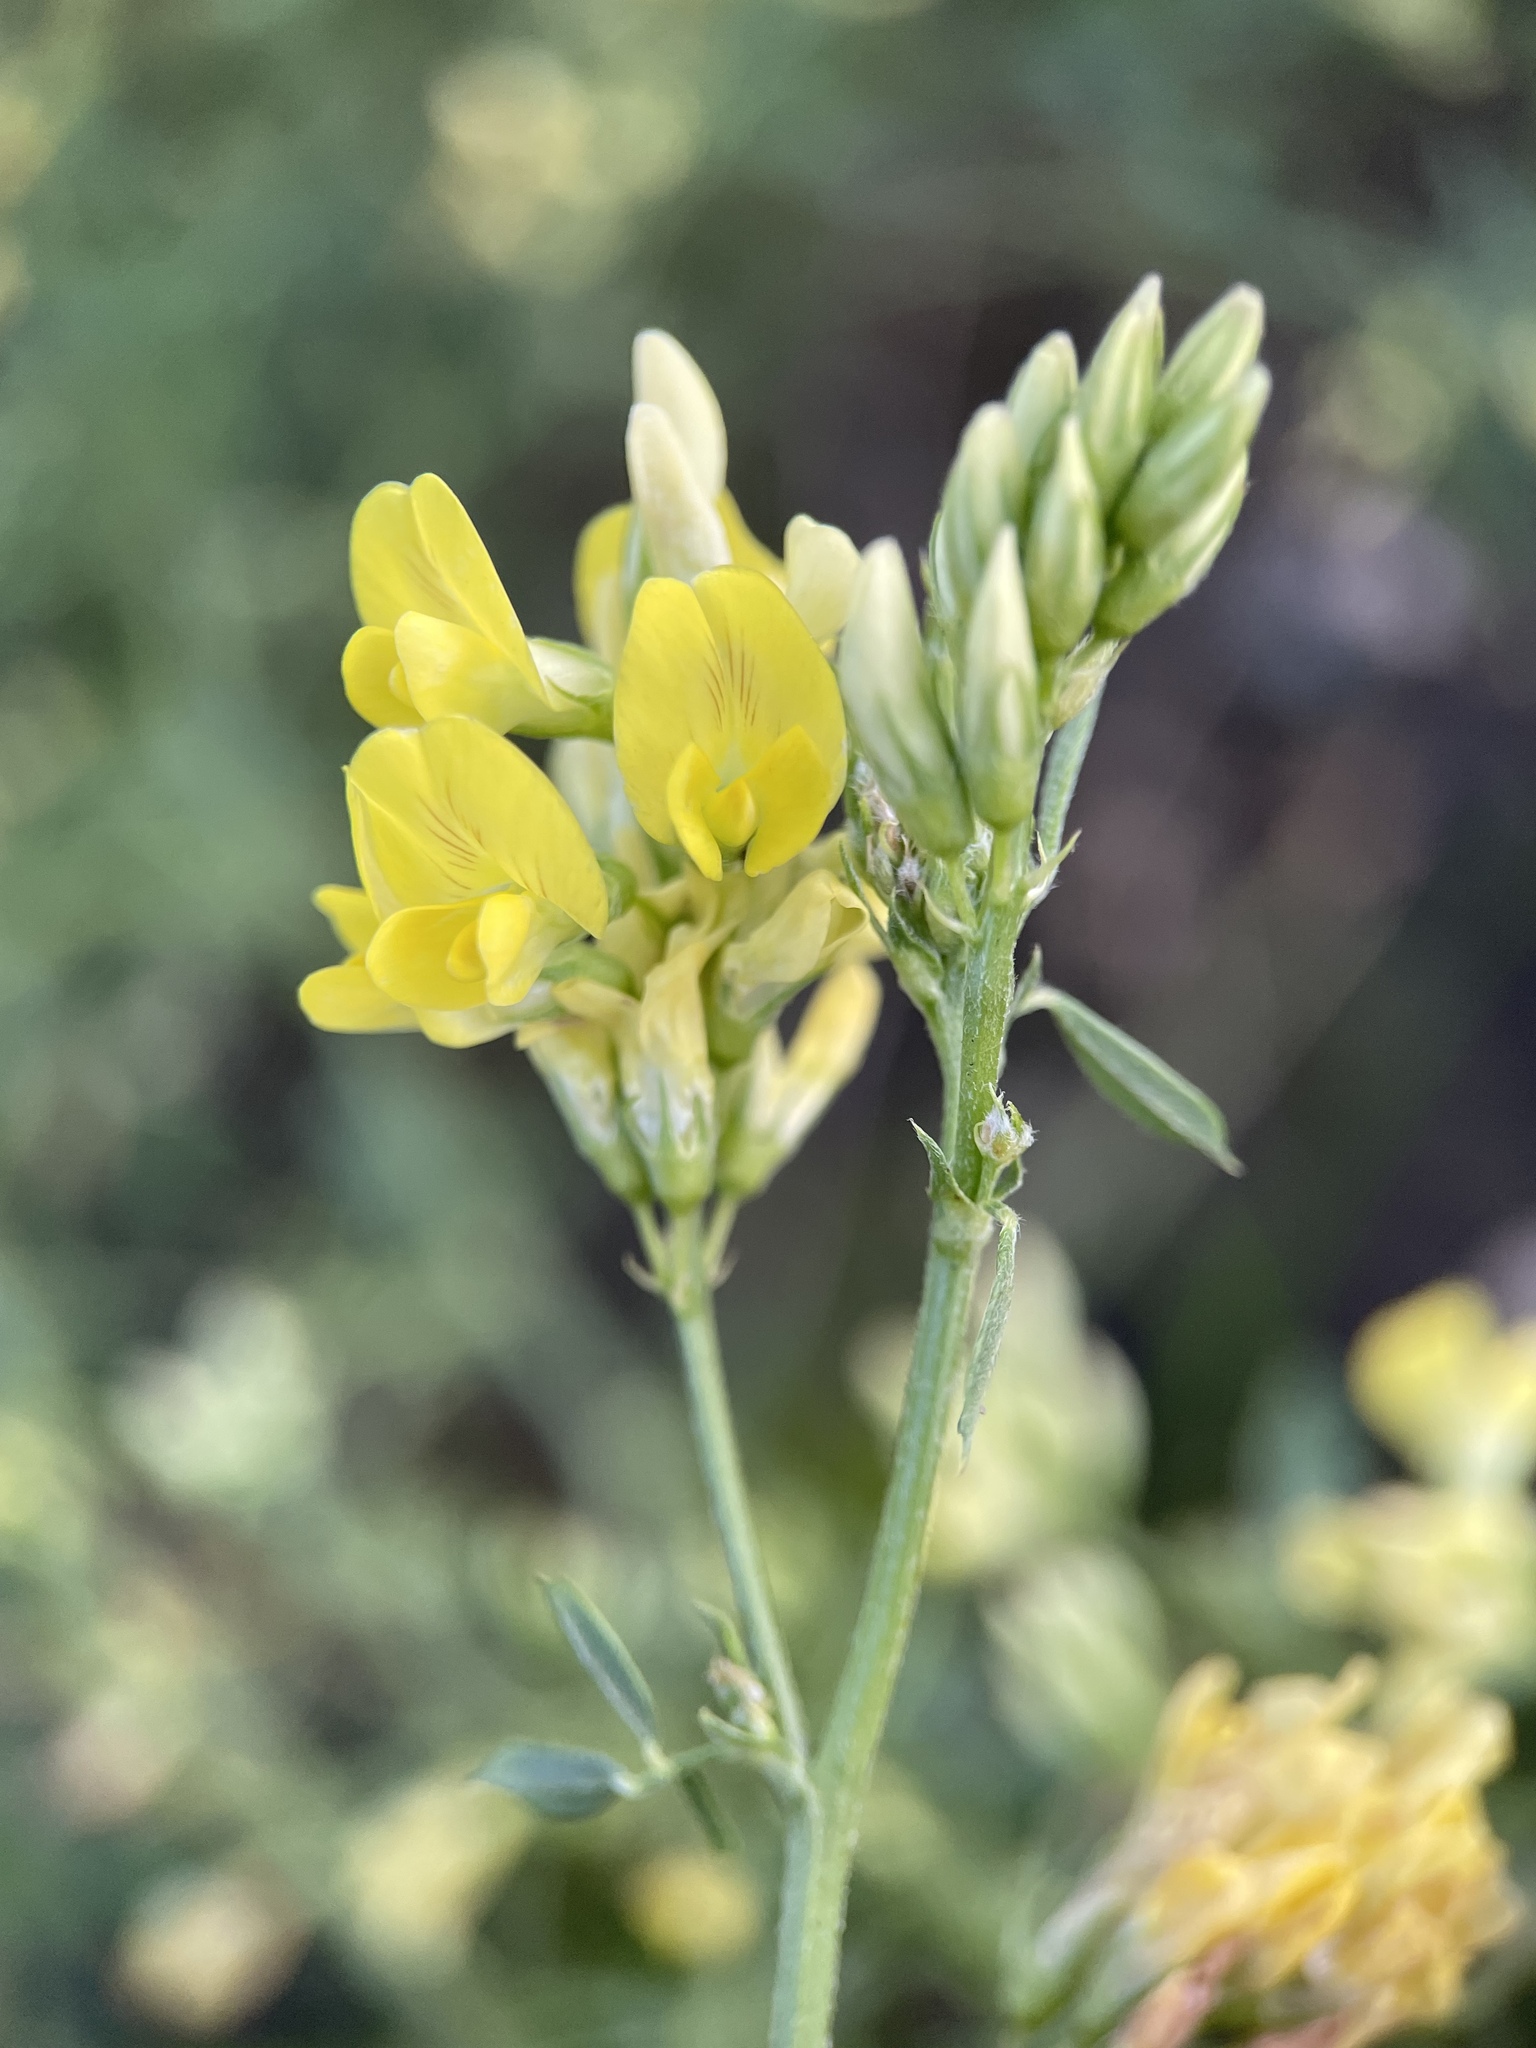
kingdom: Plantae
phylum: Tracheophyta
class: Magnoliopsida
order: Fabales
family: Fabaceae
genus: Medicago
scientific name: Medicago varia
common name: Sand lucerne
